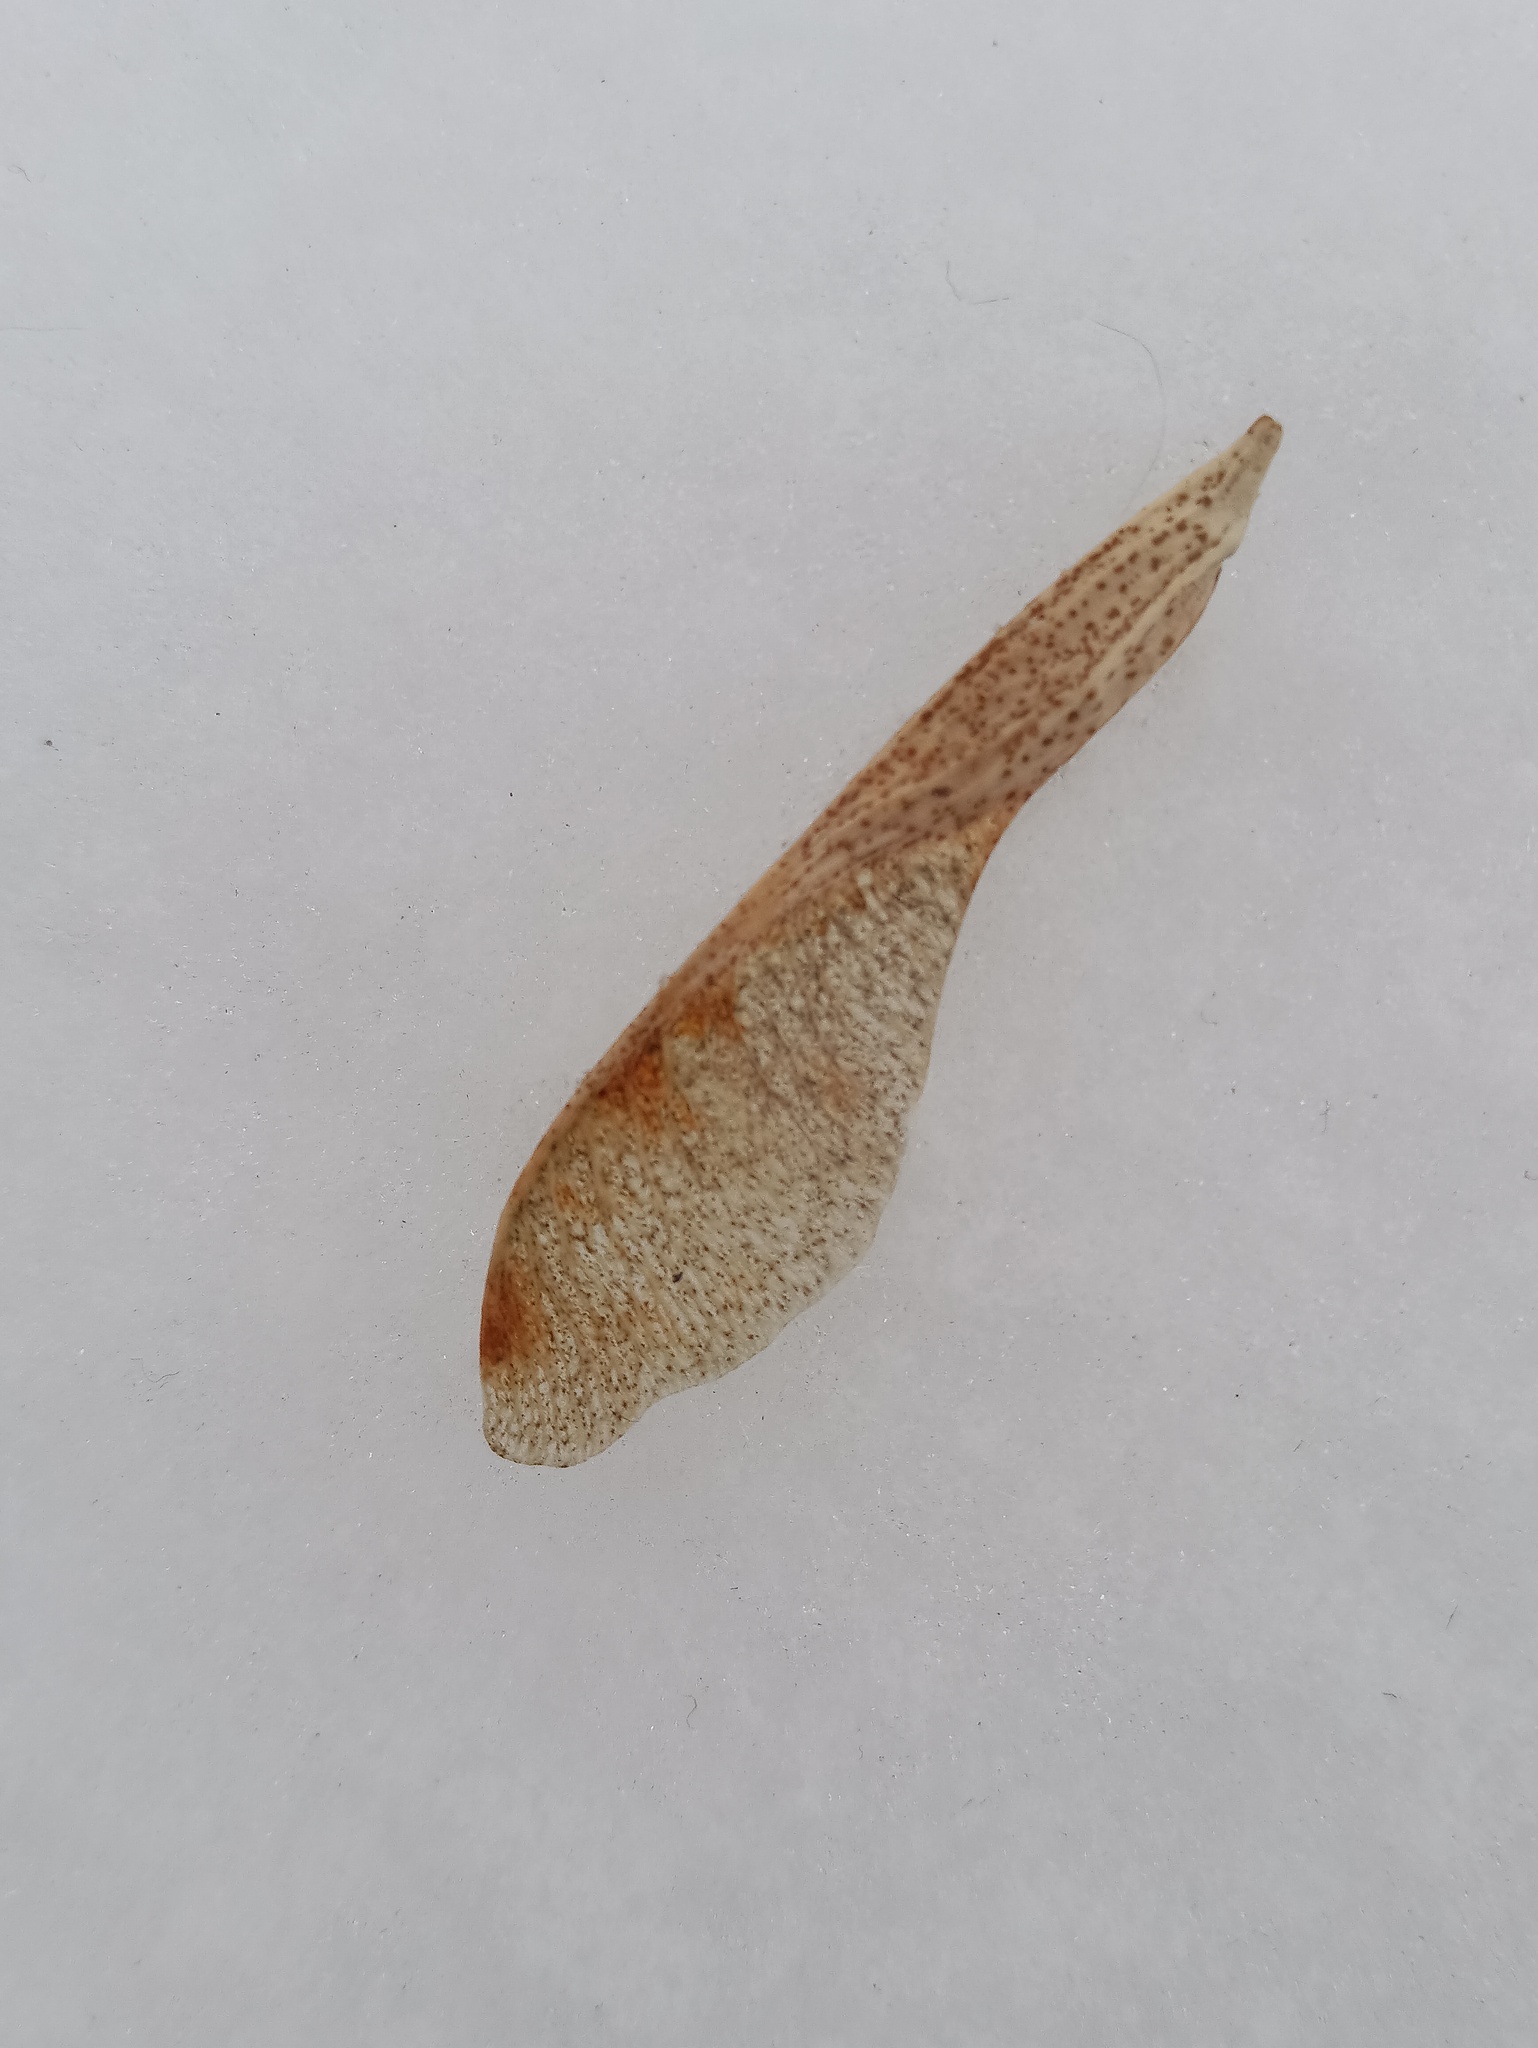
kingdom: Plantae
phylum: Tracheophyta
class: Magnoliopsida
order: Sapindales
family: Sapindaceae
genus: Acer
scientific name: Acer negundo
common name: Ashleaf maple
